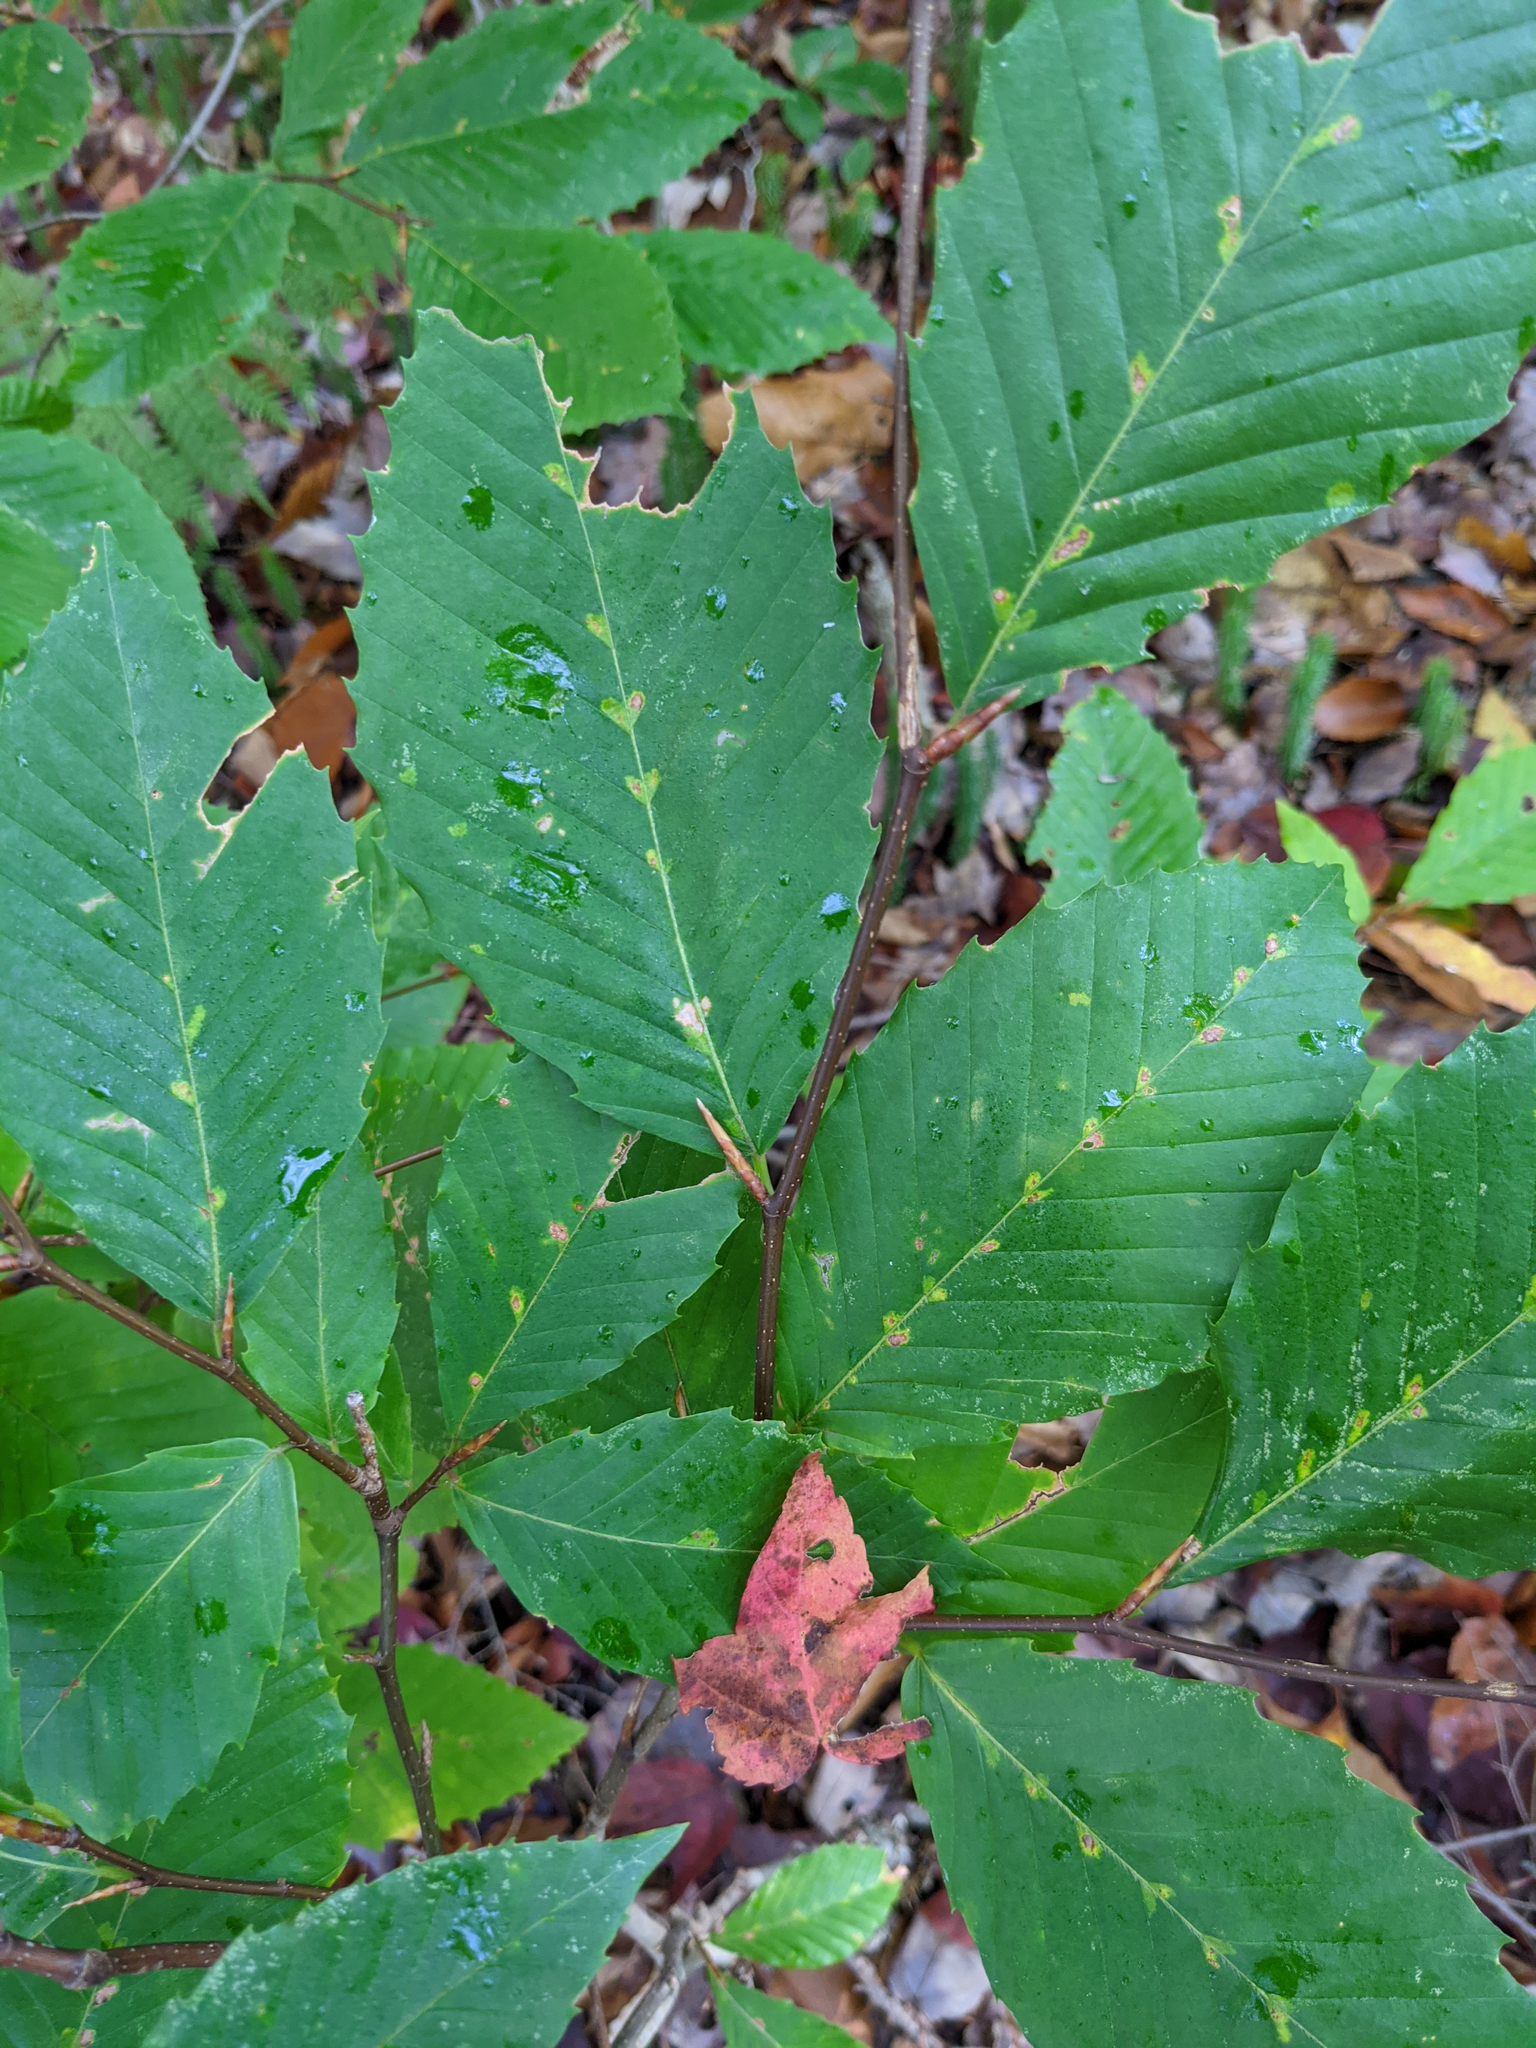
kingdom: Plantae
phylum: Tracheophyta
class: Magnoliopsida
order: Fagales
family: Fagaceae
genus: Fagus
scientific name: Fagus grandifolia
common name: American beech
